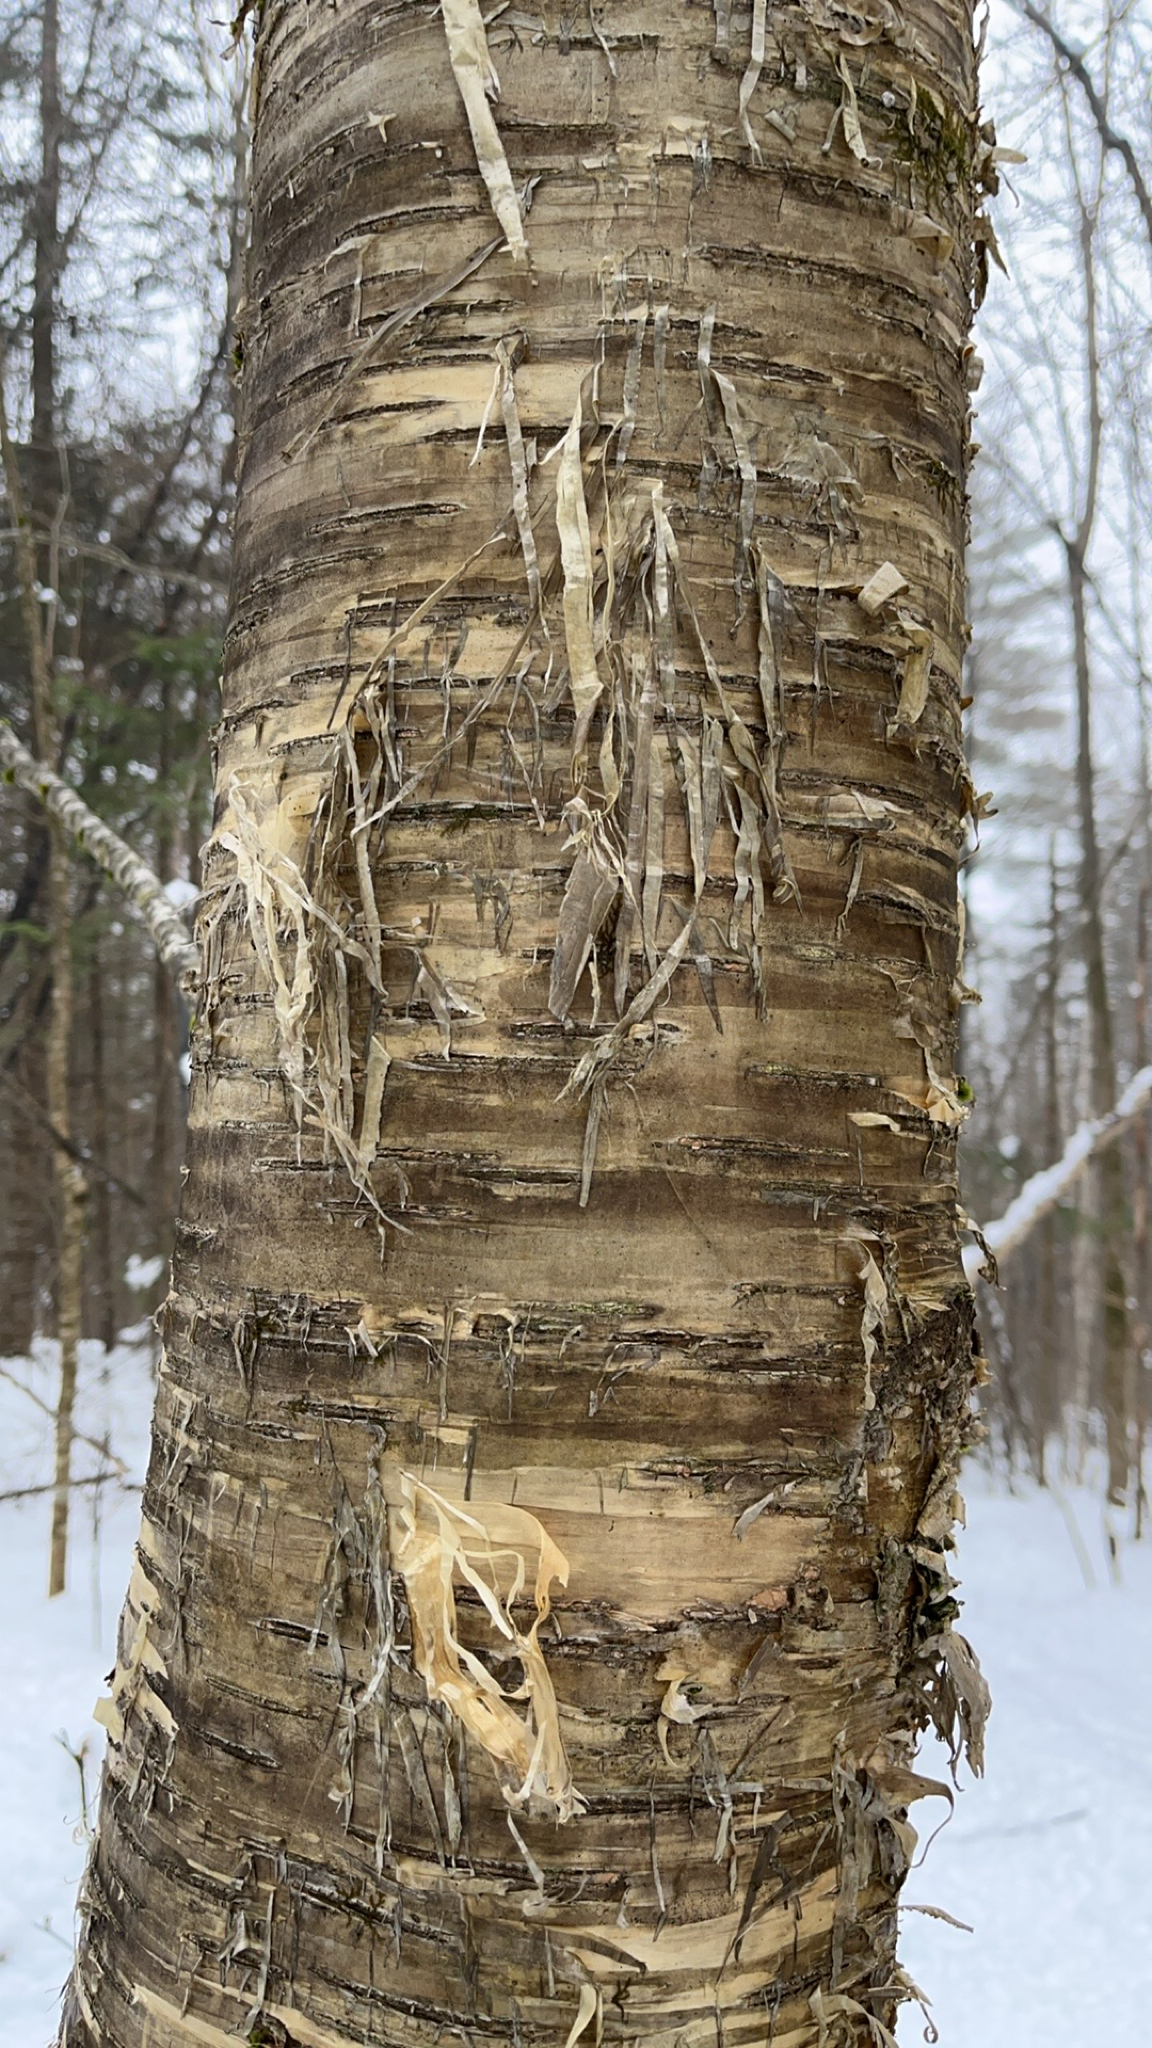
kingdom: Plantae
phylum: Tracheophyta
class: Magnoliopsida
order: Fagales
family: Betulaceae
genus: Betula
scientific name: Betula alleghaniensis
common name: Yellow birch
